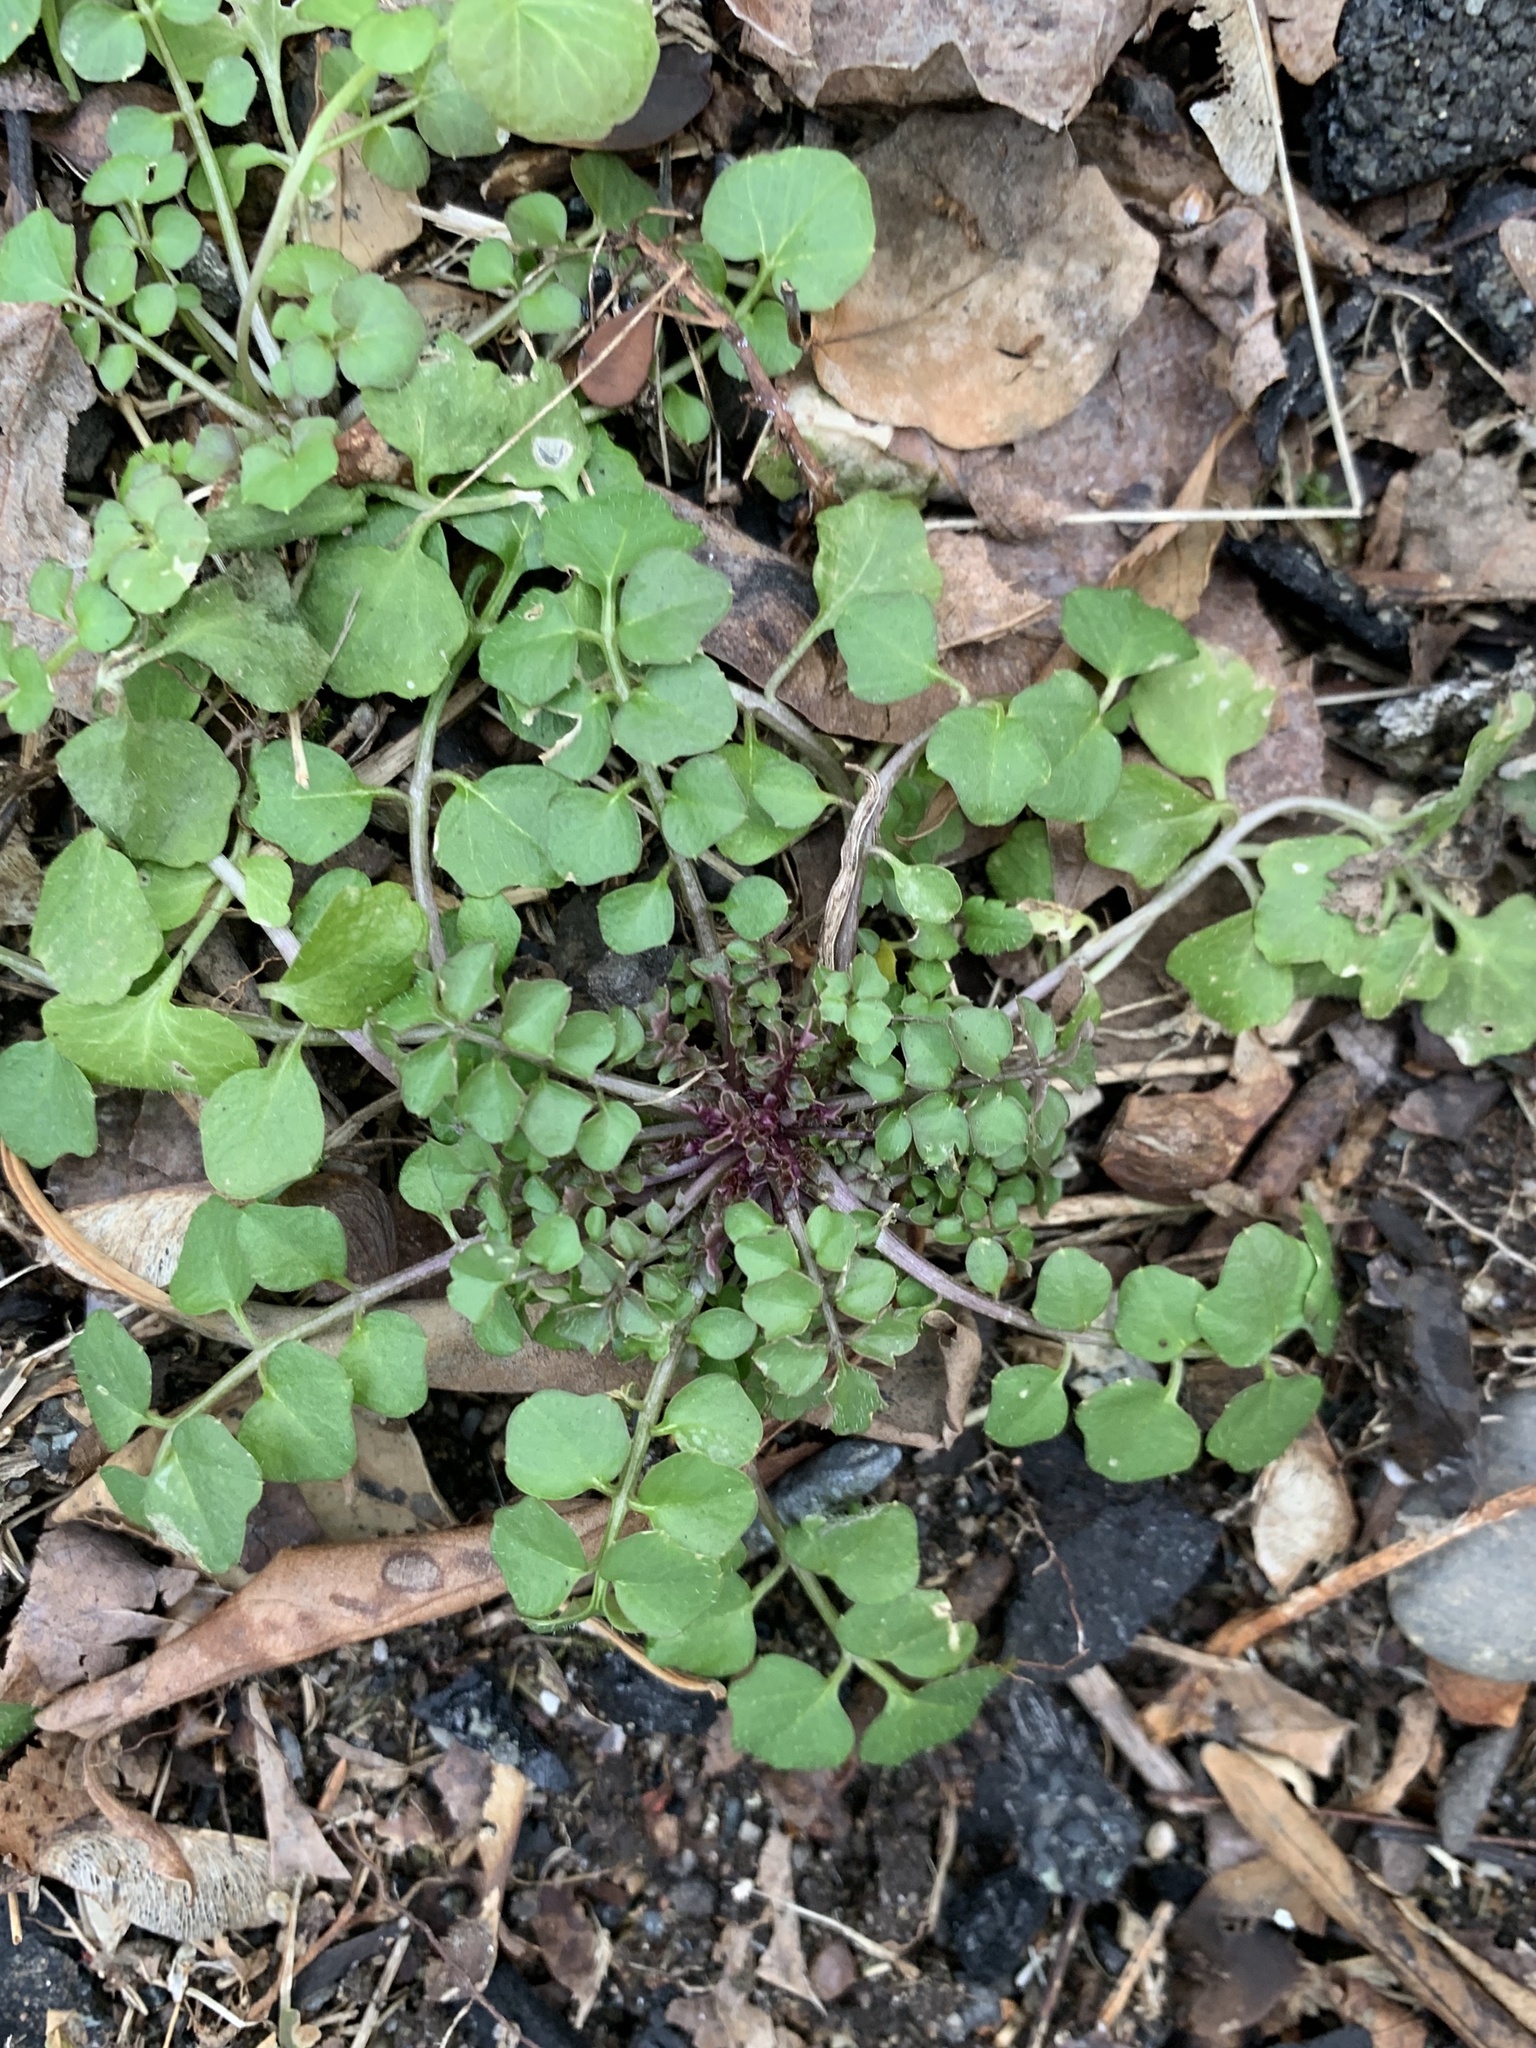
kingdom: Plantae
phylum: Tracheophyta
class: Magnoliopsida
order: Brassicales
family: Brassicaceae
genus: Cardamine
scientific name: Cardamine hirsuta
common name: Hairy bittercress
